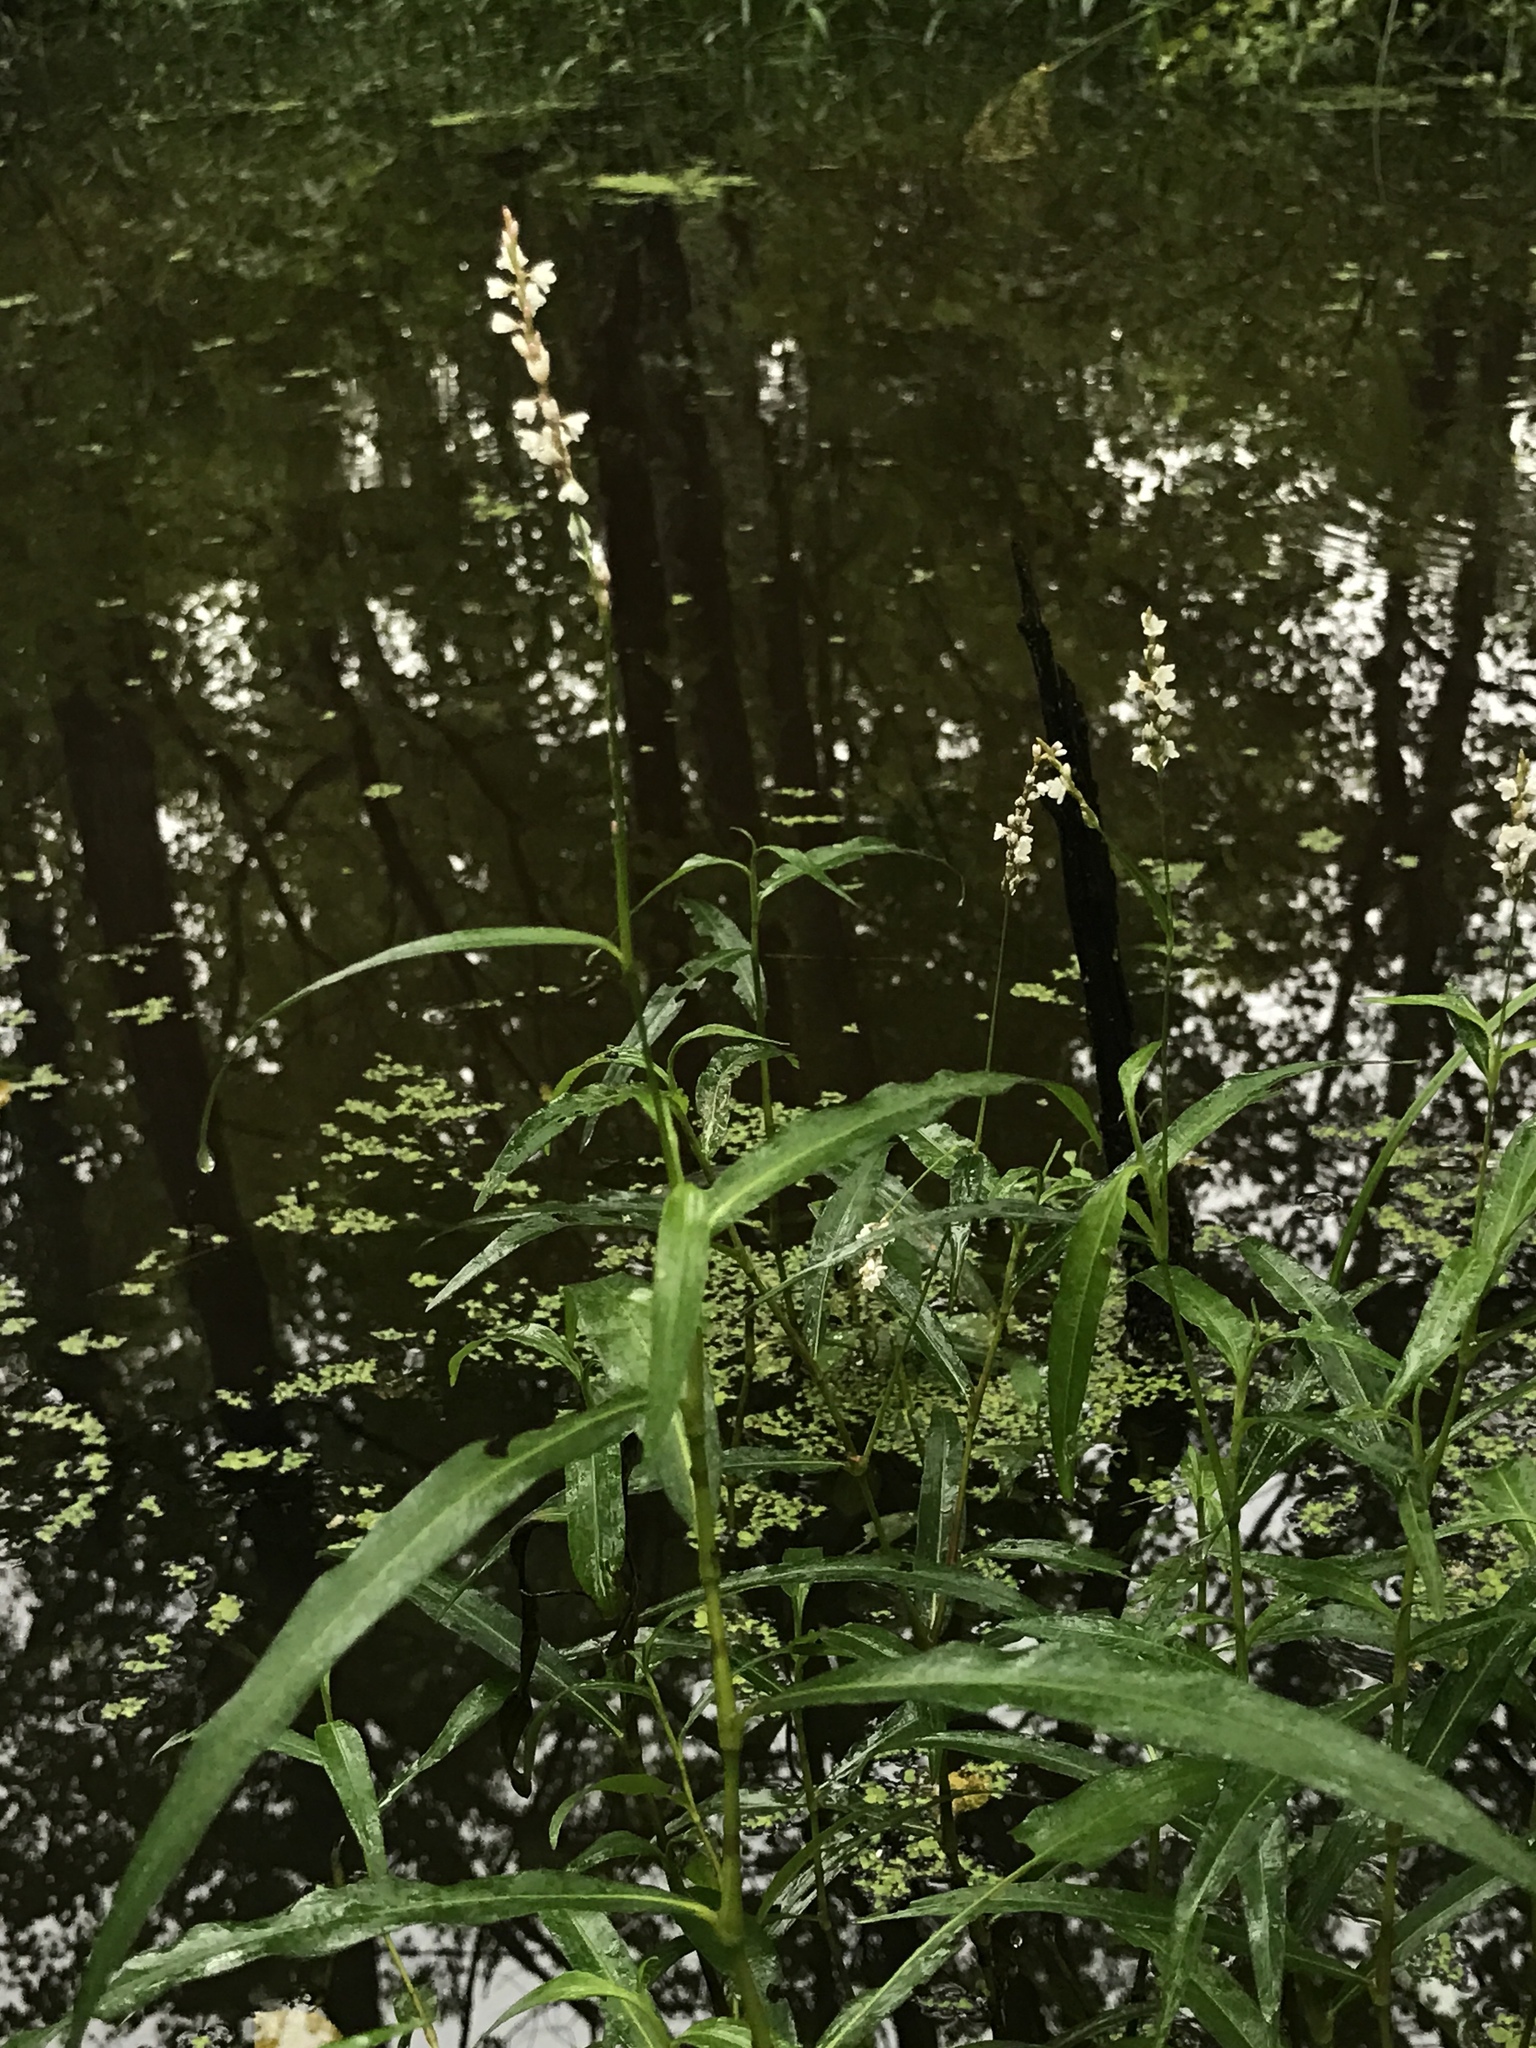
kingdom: Plantae
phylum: Tracheophyta
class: Magnoliopsida
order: Caryophyllales
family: Polygonaceae
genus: Persicaria
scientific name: Persicaria hydropiperoides
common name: Swamp smartweed
